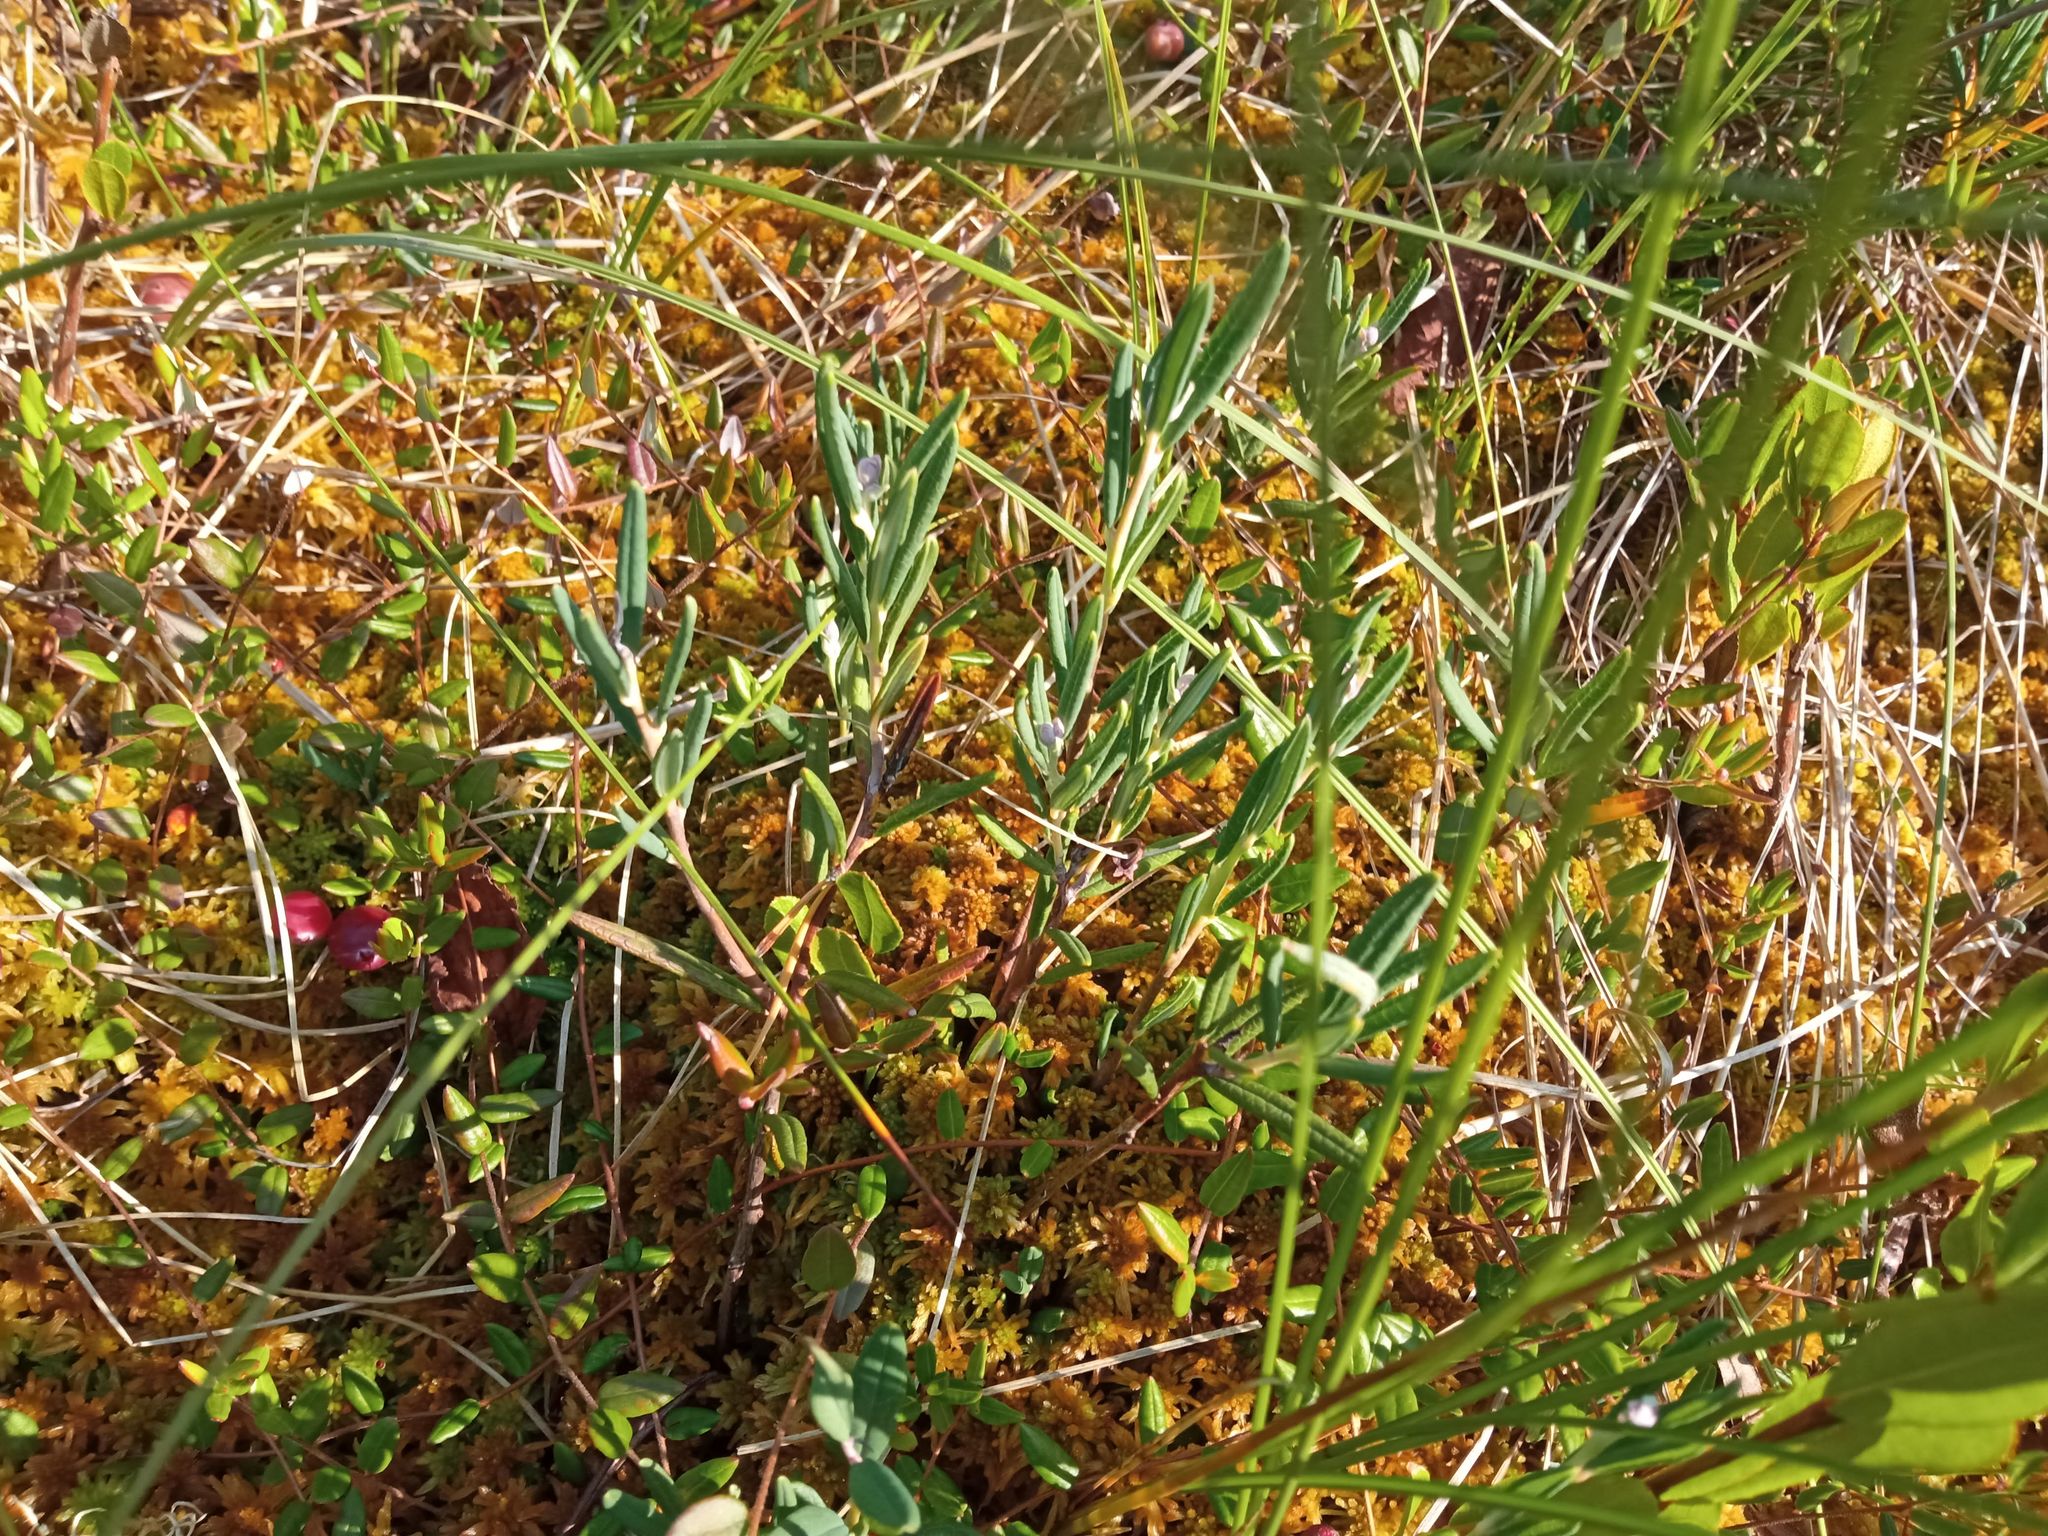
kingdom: Plantae
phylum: Tracheophyta
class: Magnoliopsida
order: Ericales
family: Ericaceae
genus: Andromeda
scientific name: Andromeda polifolia
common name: Bog-rosemary
